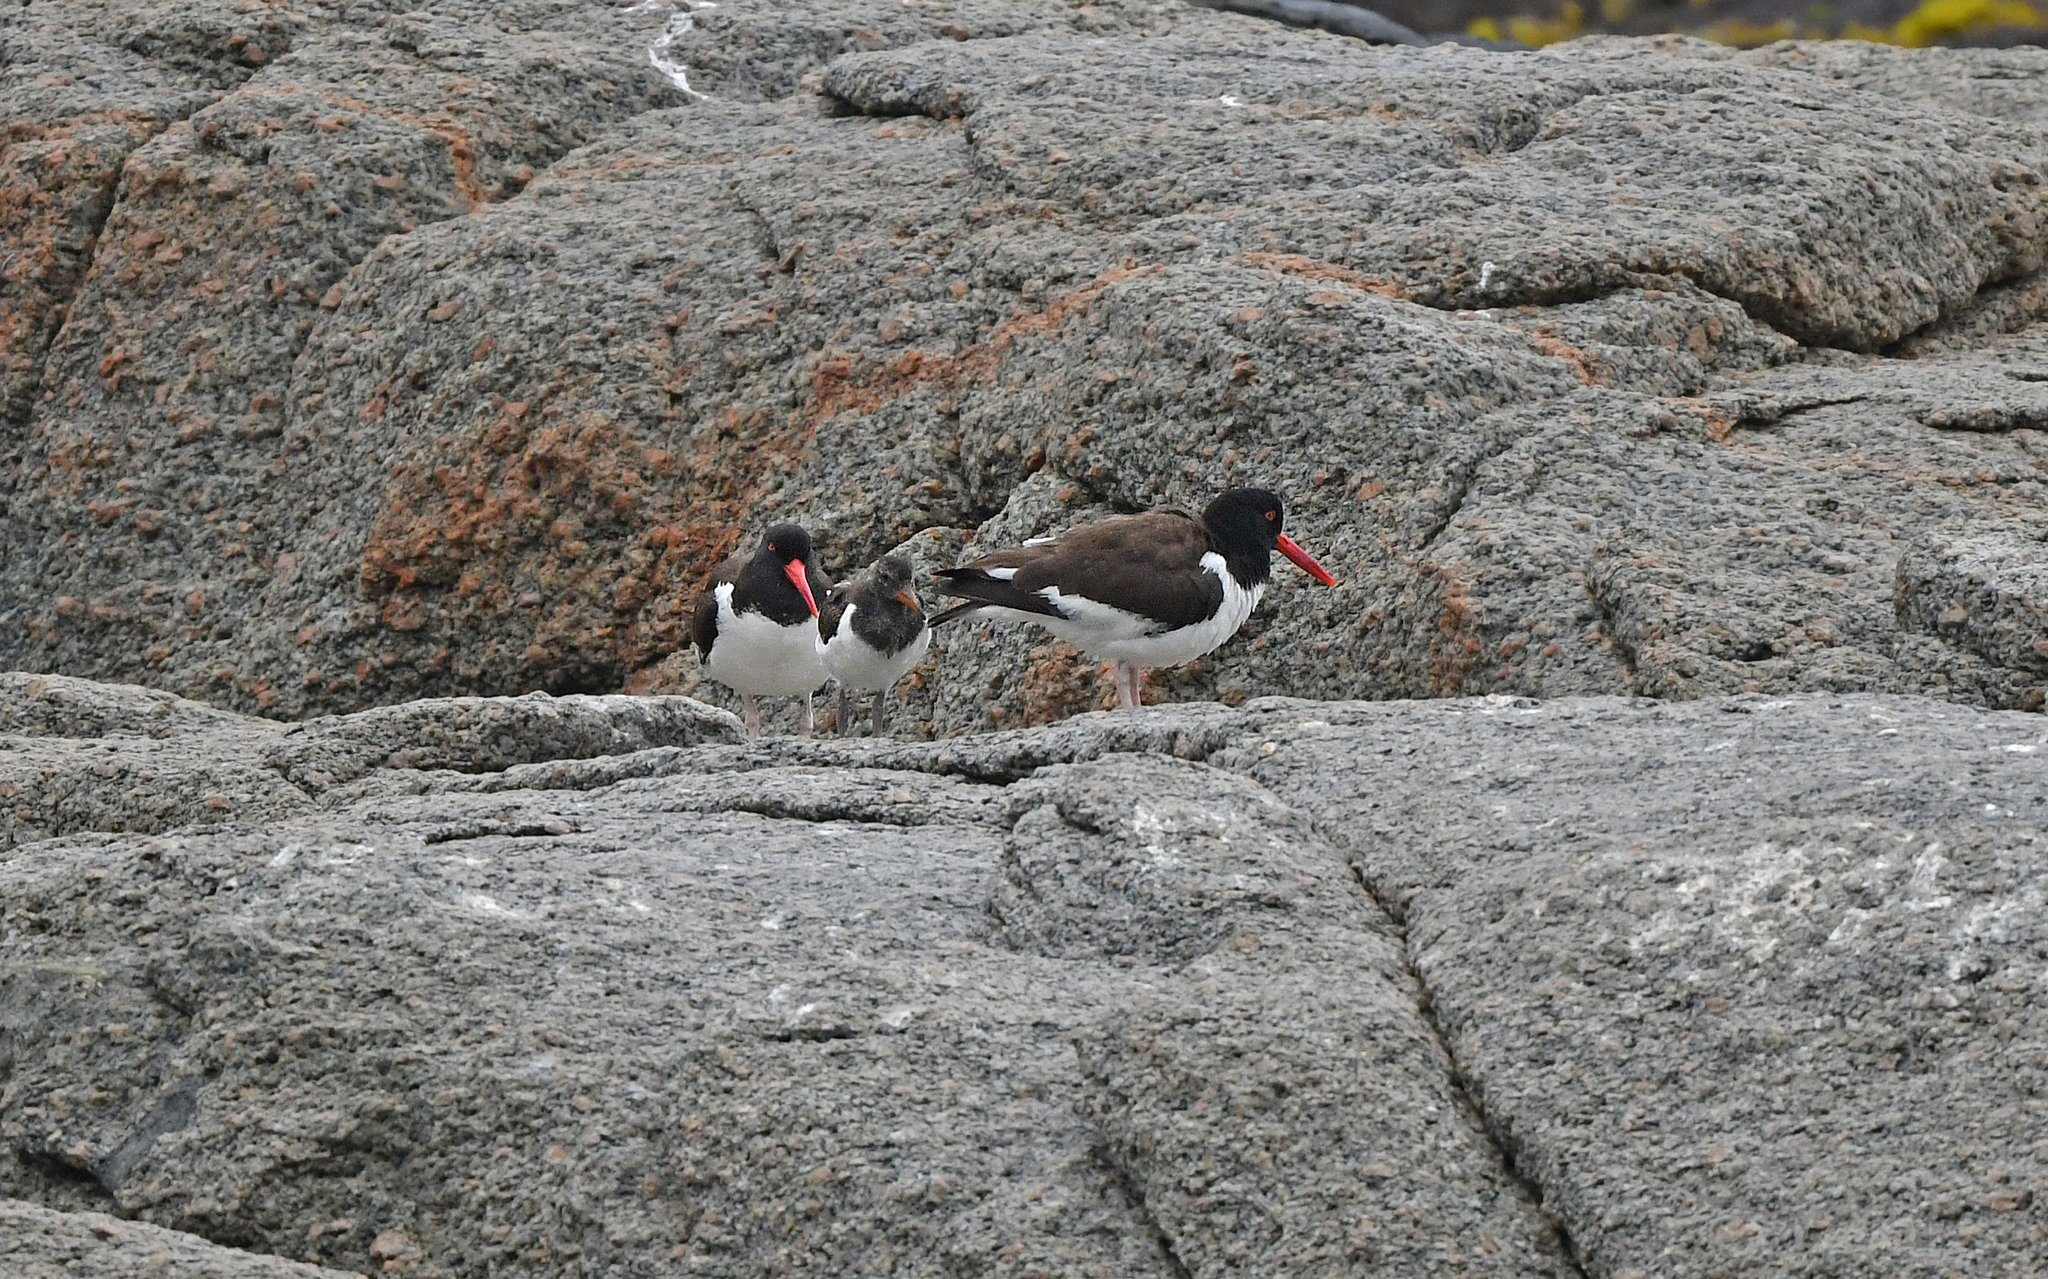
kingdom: Animalia
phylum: Chordata
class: Aves
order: Charadriiformes
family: Haematopodidae
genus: Haematopus
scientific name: Haematopus palliatus
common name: American oystercatcher
